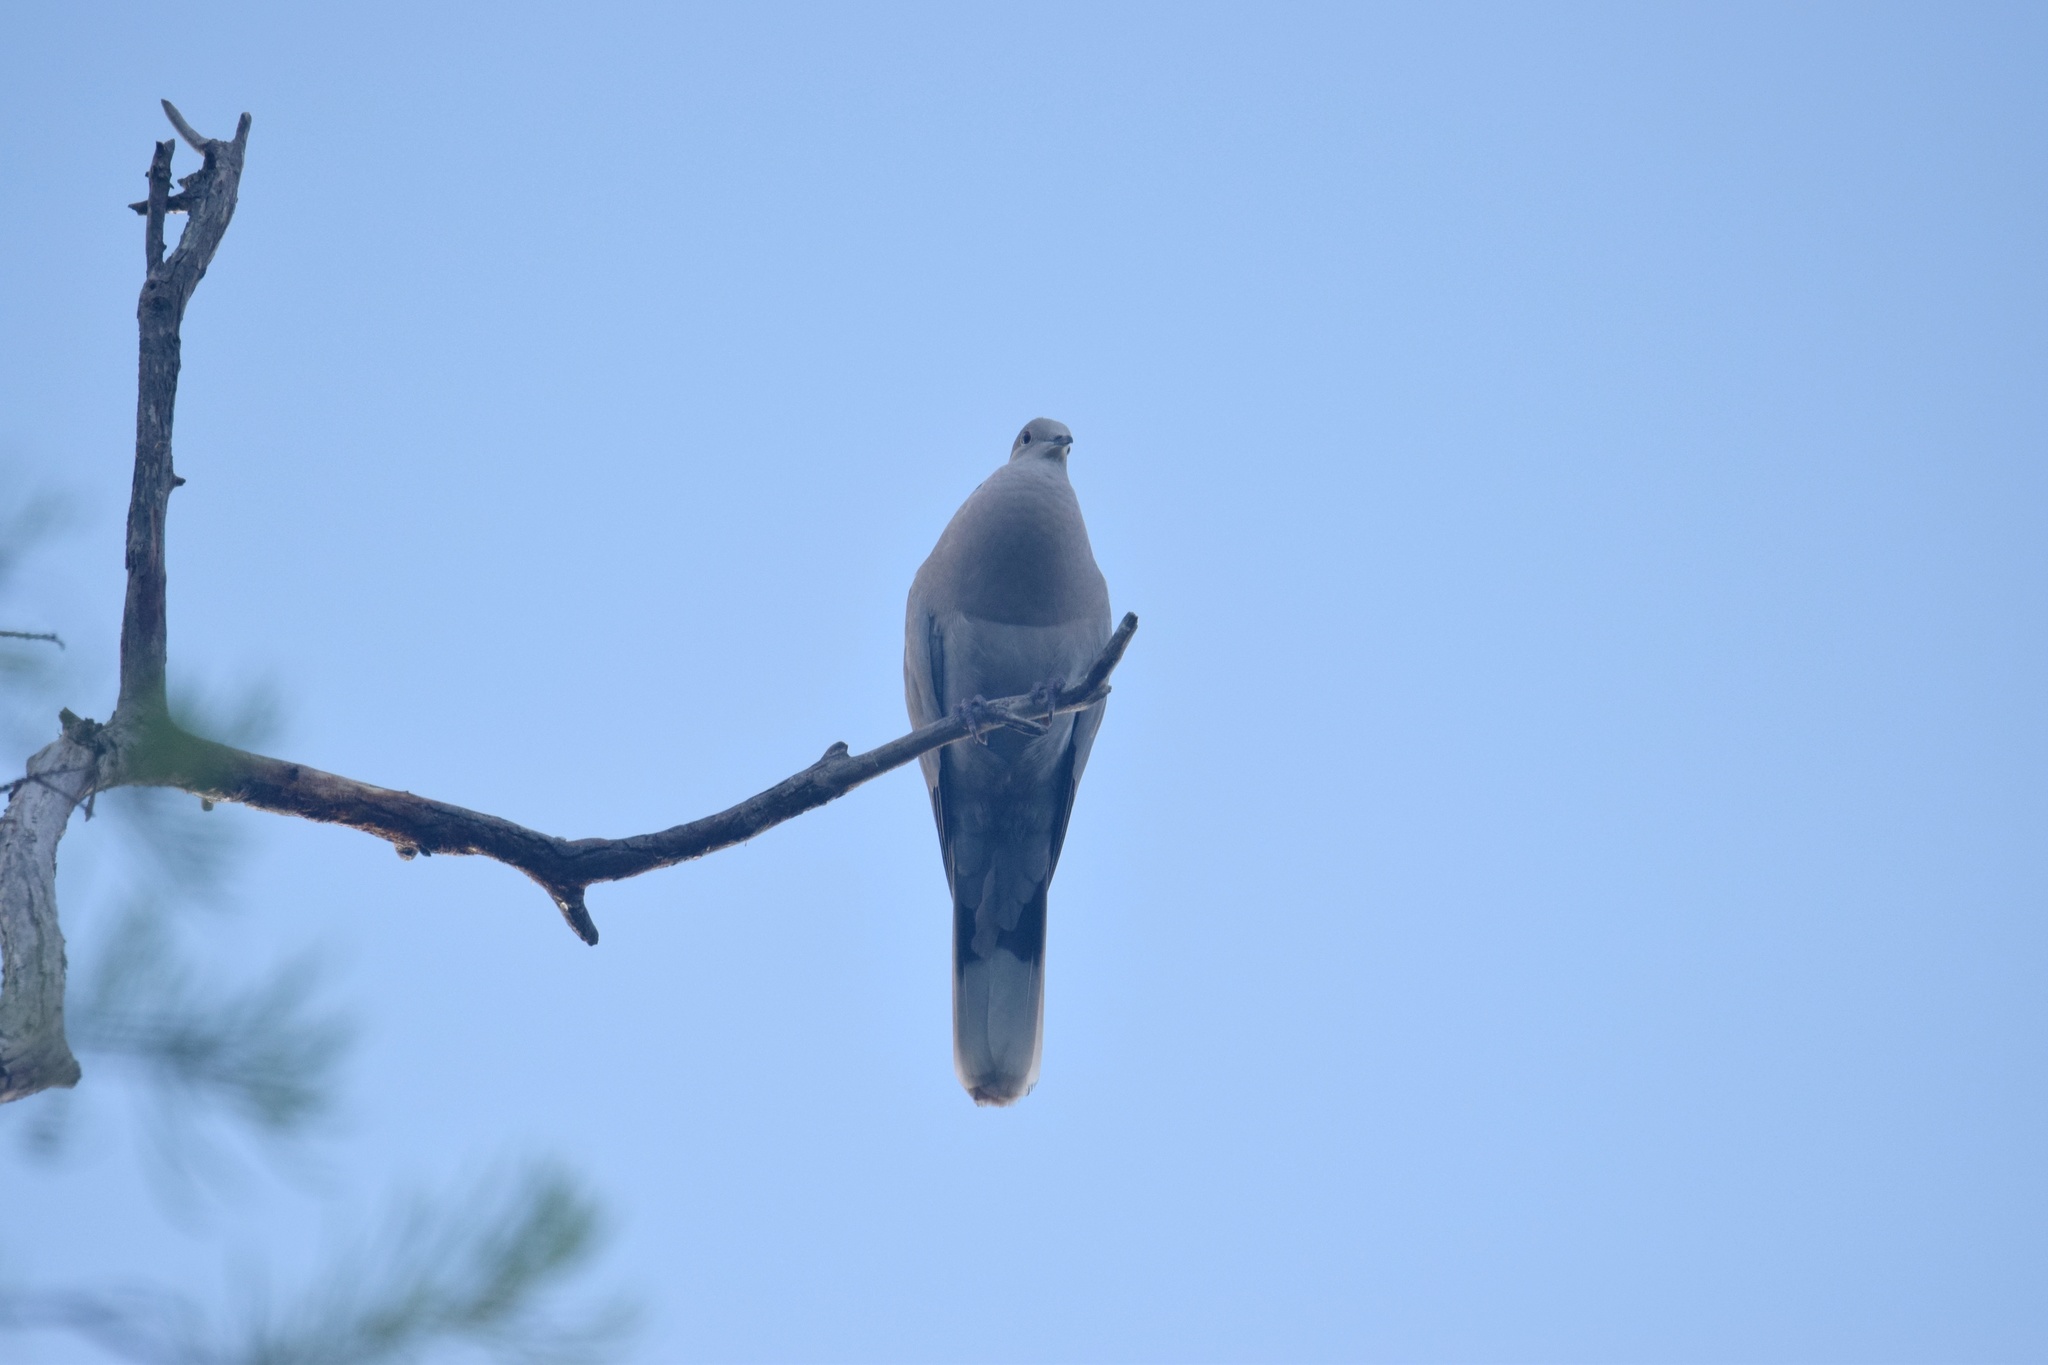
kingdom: Animalia
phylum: Chordata
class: Aves
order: Columbiformes
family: Columbidae
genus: Streptopelia
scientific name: Streptopelia decaocto
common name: Eurasian collared dove
